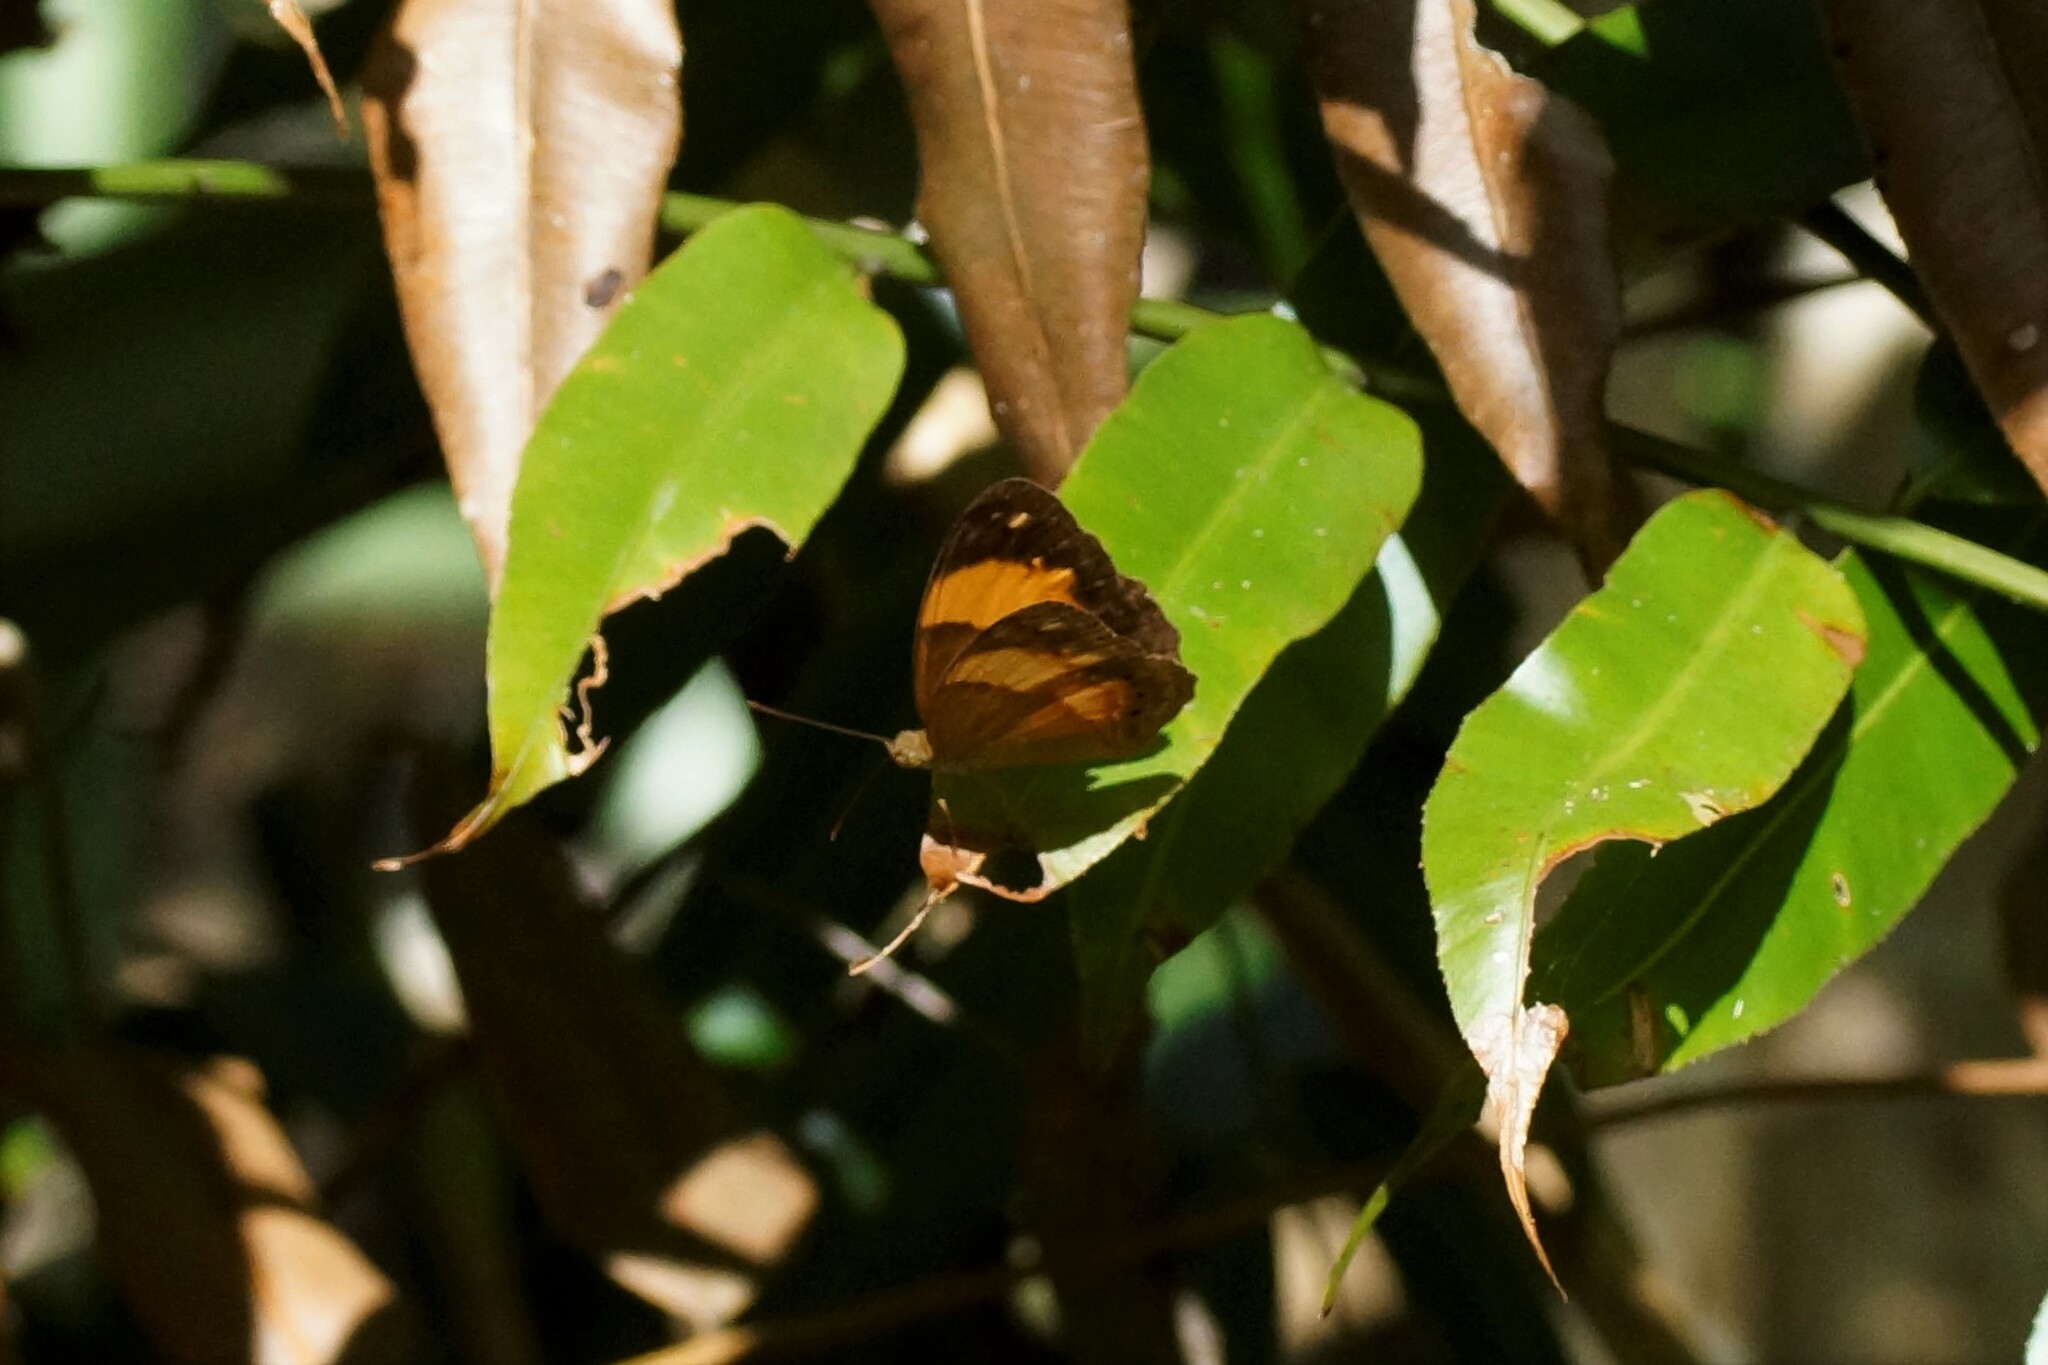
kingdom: Animalia
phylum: Arthropoda
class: Insecta
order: Lepidoptera
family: Nymphalidae
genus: Cupha
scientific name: Cupha prosope
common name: Bordered rustic
